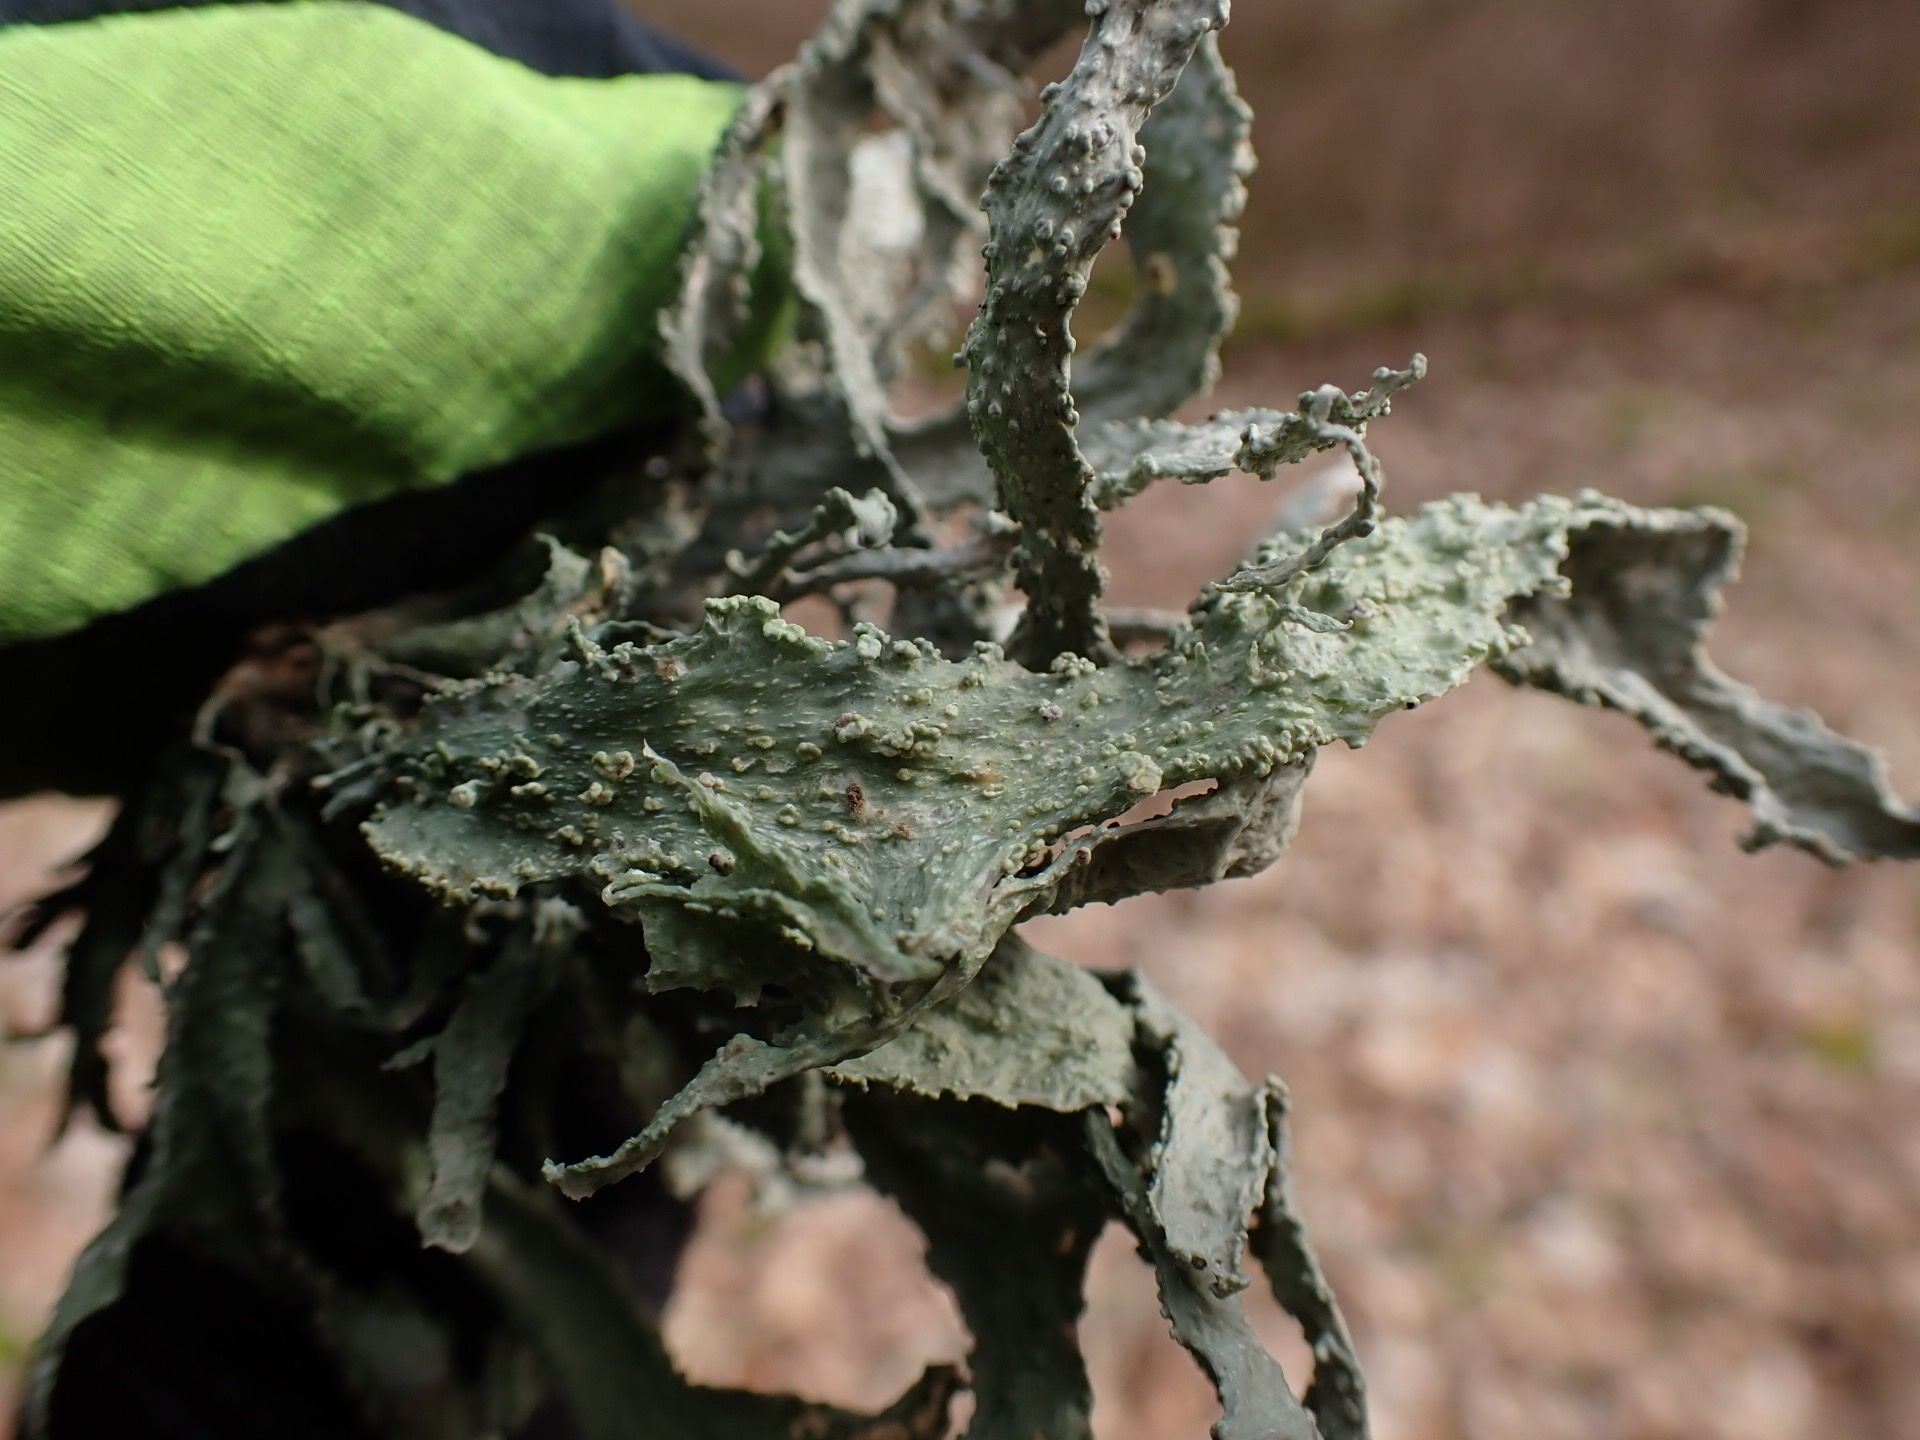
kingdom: Fungi
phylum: Ascomycota
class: Lecanoromycetes
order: Lecanorales
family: Ramalinaceae
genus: Ramalina
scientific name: Ramalina fraxinea
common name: Cartilage lichen
